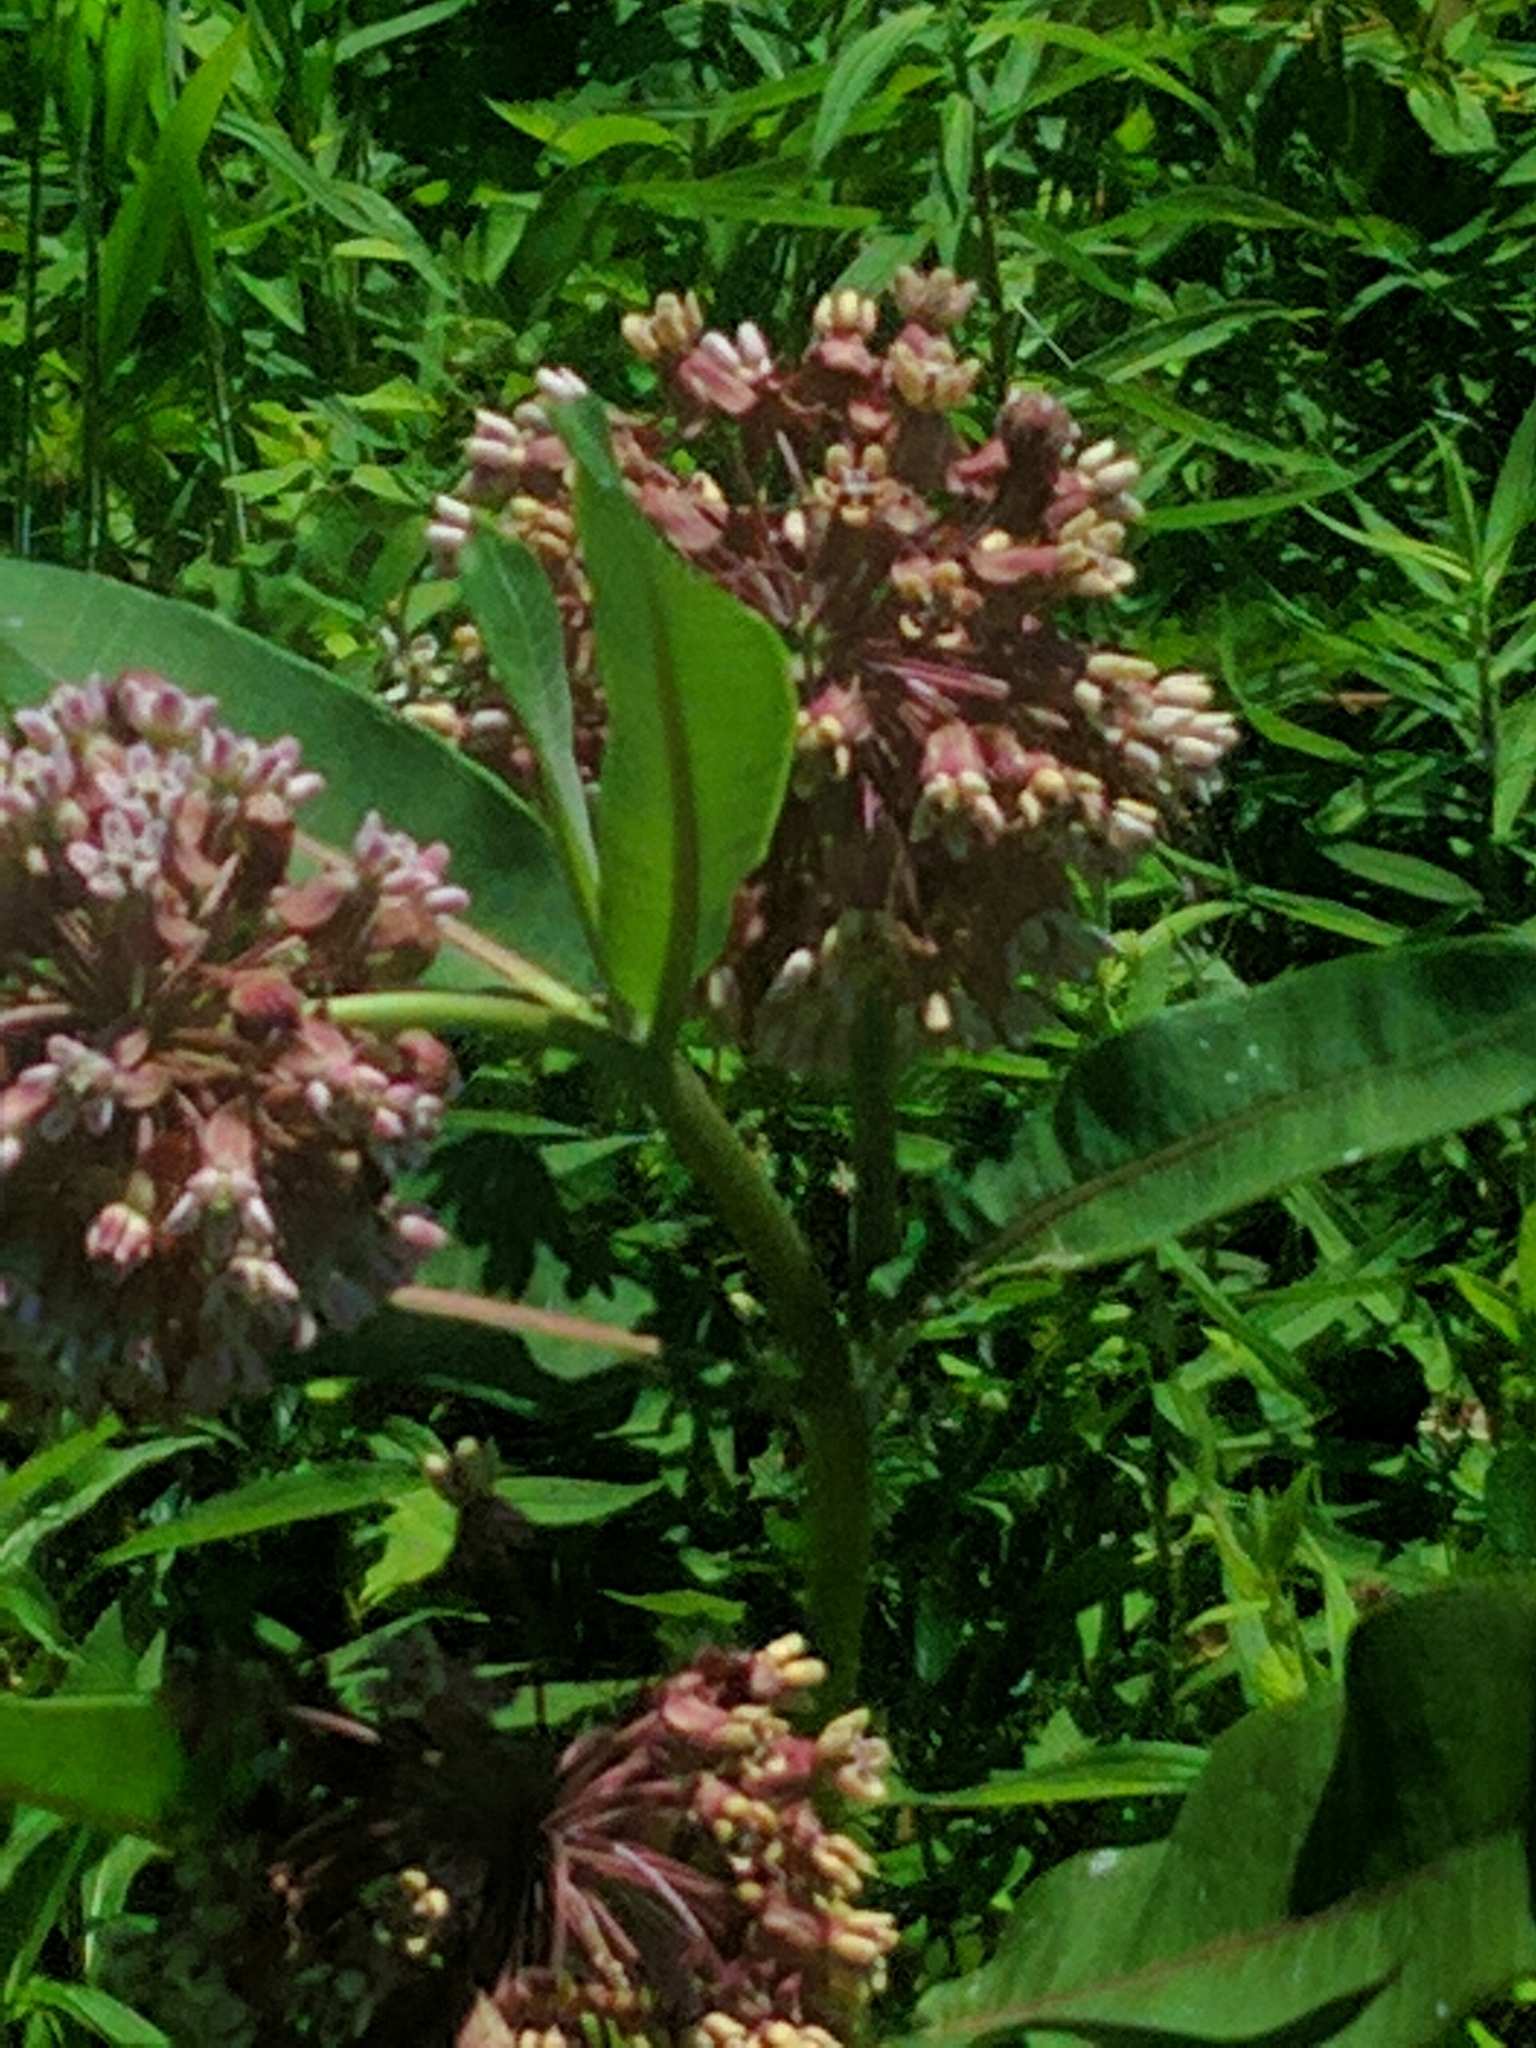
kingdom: Plantae
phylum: Tracheophyta
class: Magnoliopsida
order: Gentianales
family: Apocynaceae
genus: Asclepias
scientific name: Asclepias syriaca
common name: Common milkweed
